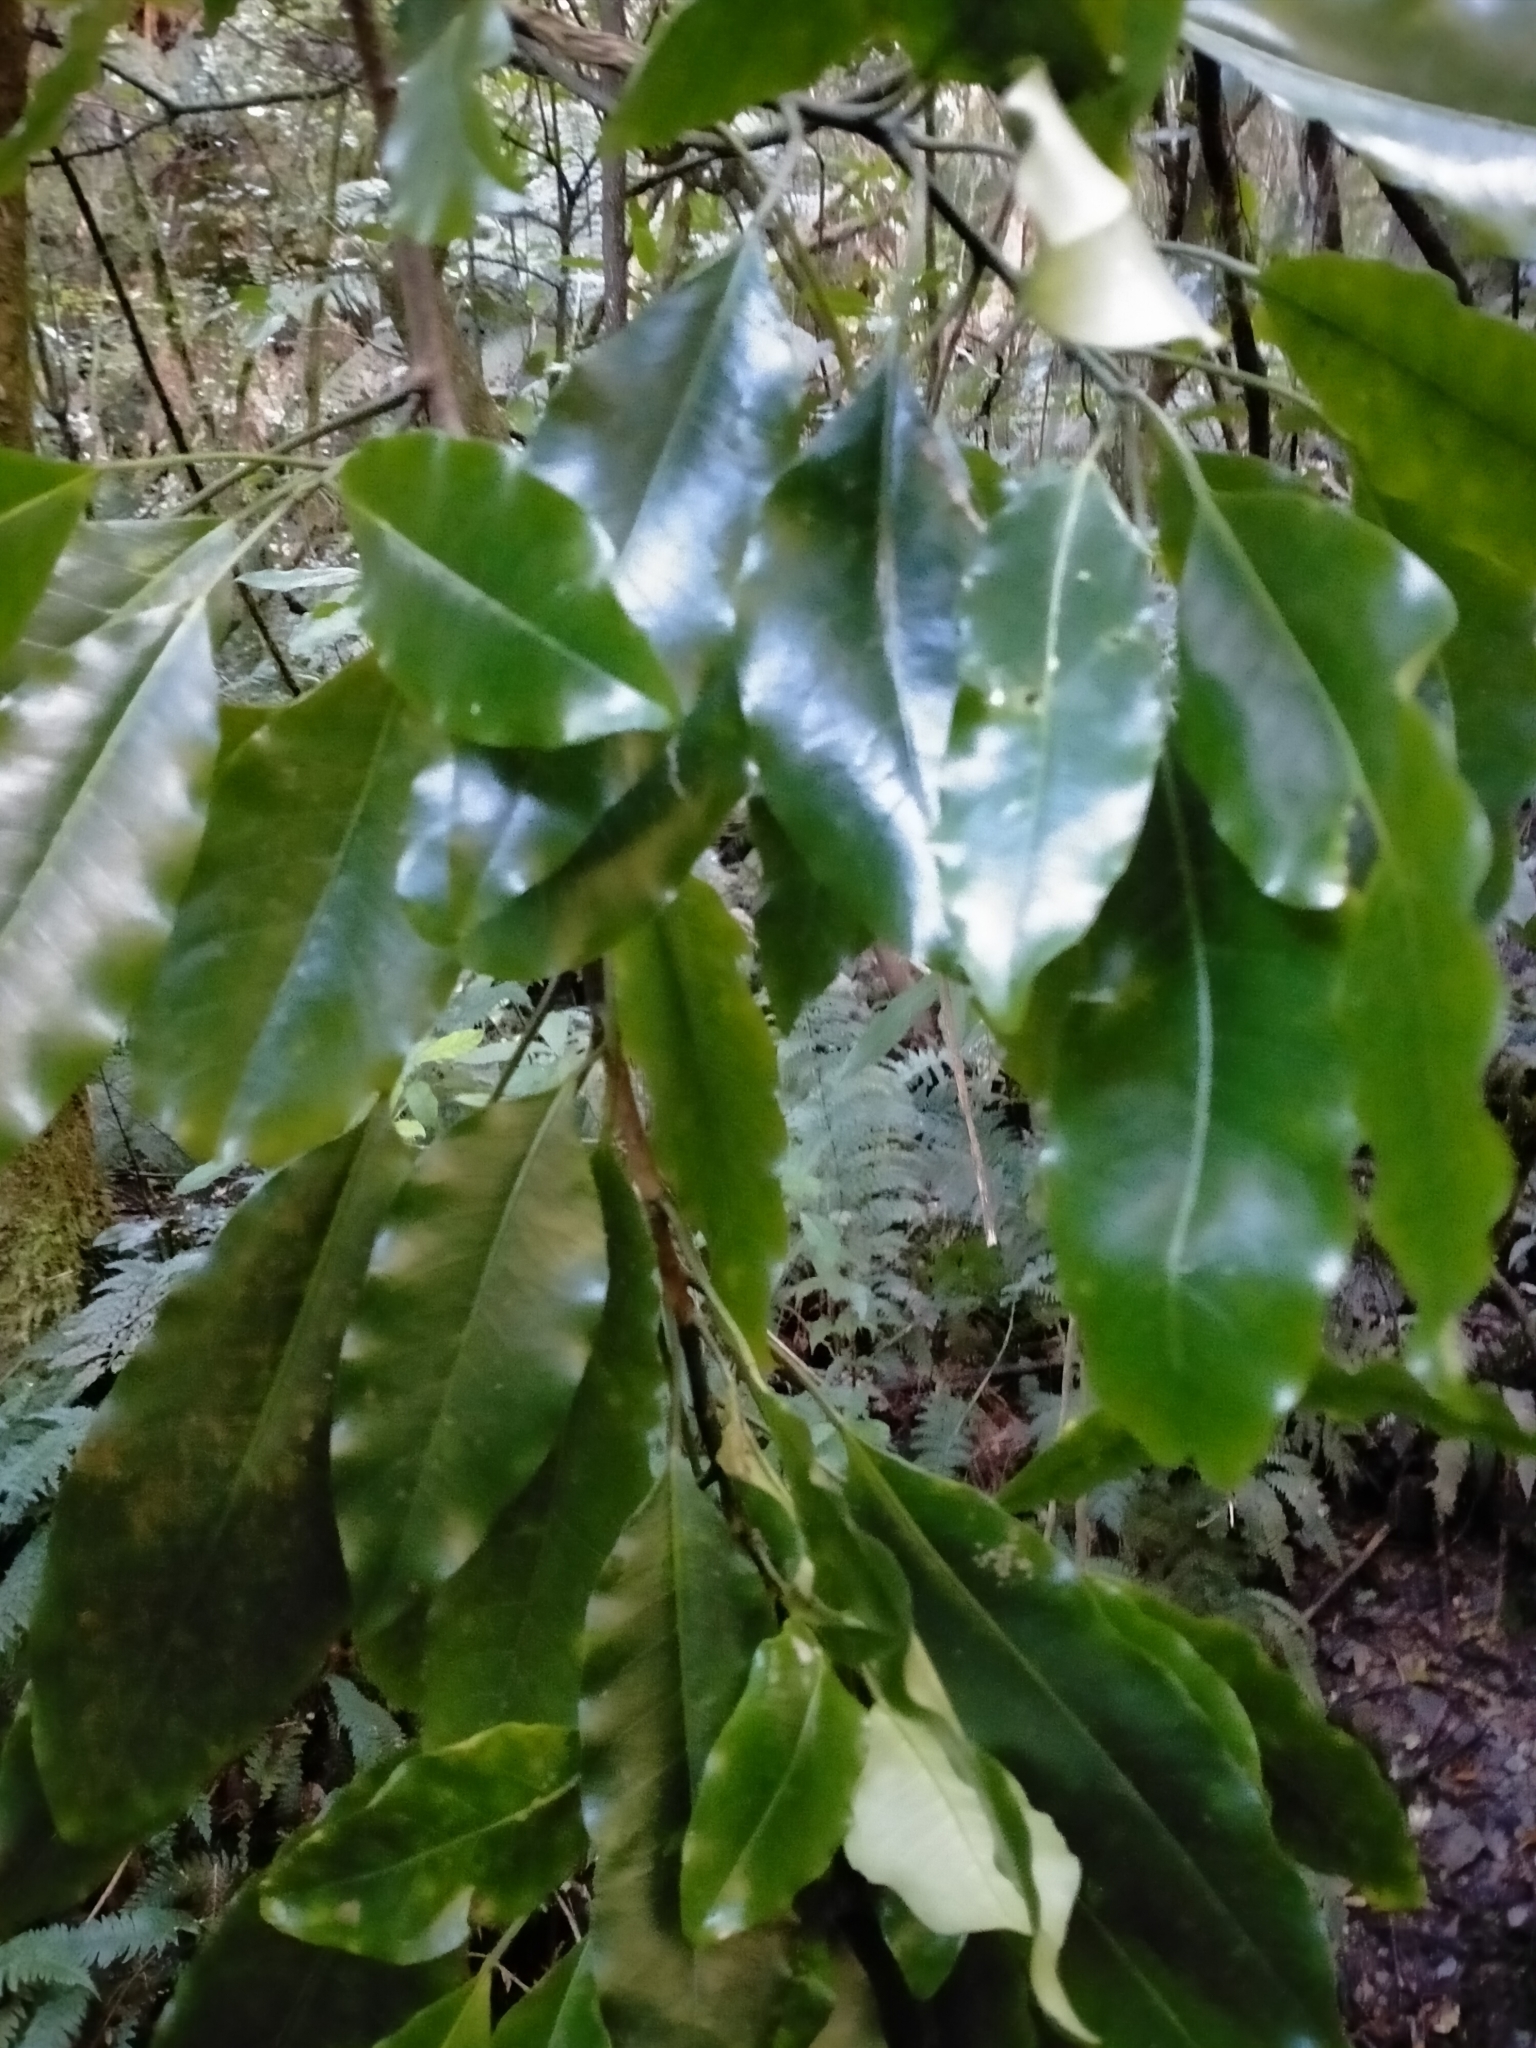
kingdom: Plantae
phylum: Tracheophyta
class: Magnoliopsida
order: Apiales
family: Araliaceae
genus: Raukaua
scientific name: Raukaua edgerleyi
